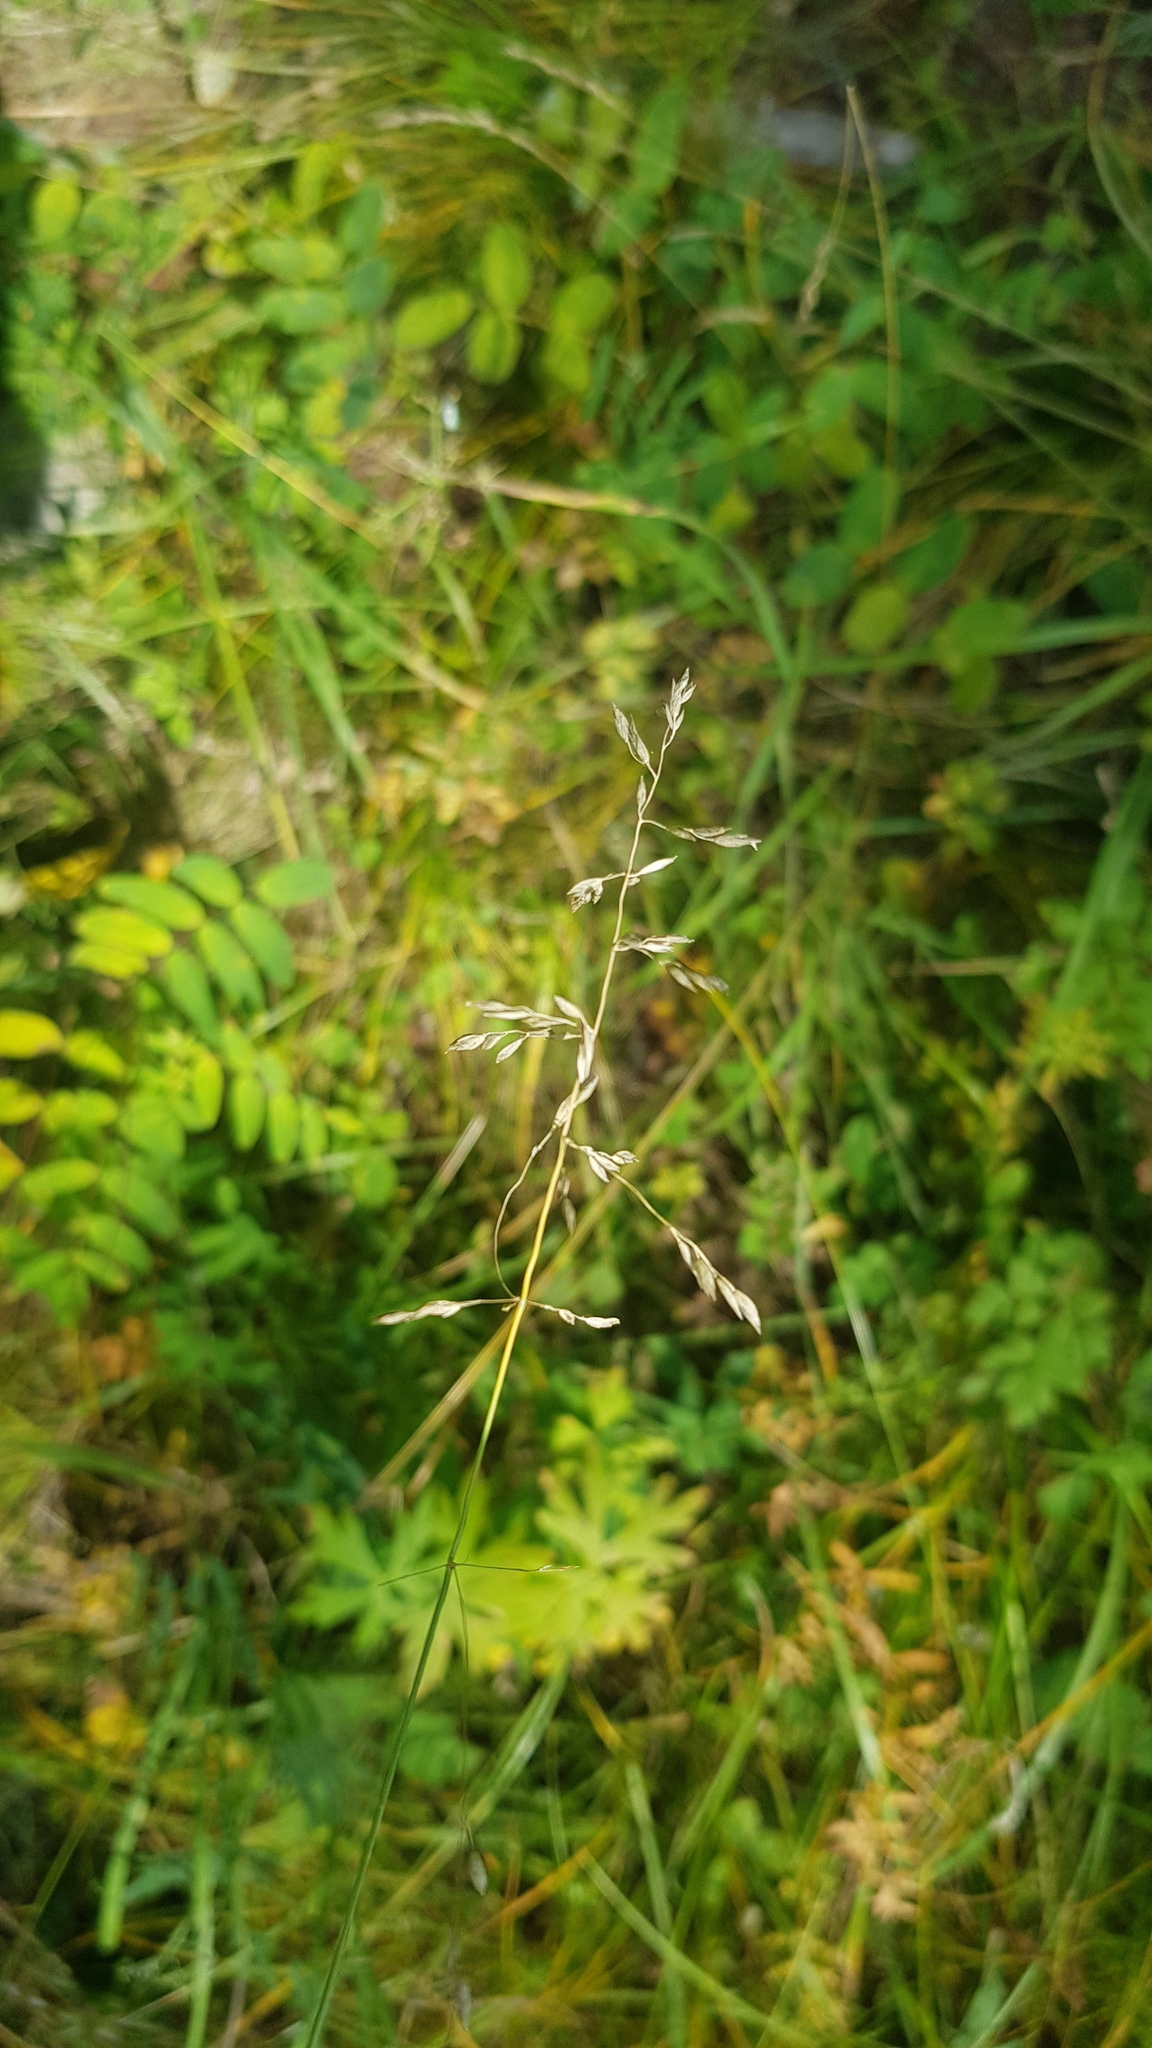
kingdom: Plantae
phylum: Tracheophyta
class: Liliopsida
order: Poales
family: Poaceae
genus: Poa
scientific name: Poa pratensis
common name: Kentucky bluegrass
